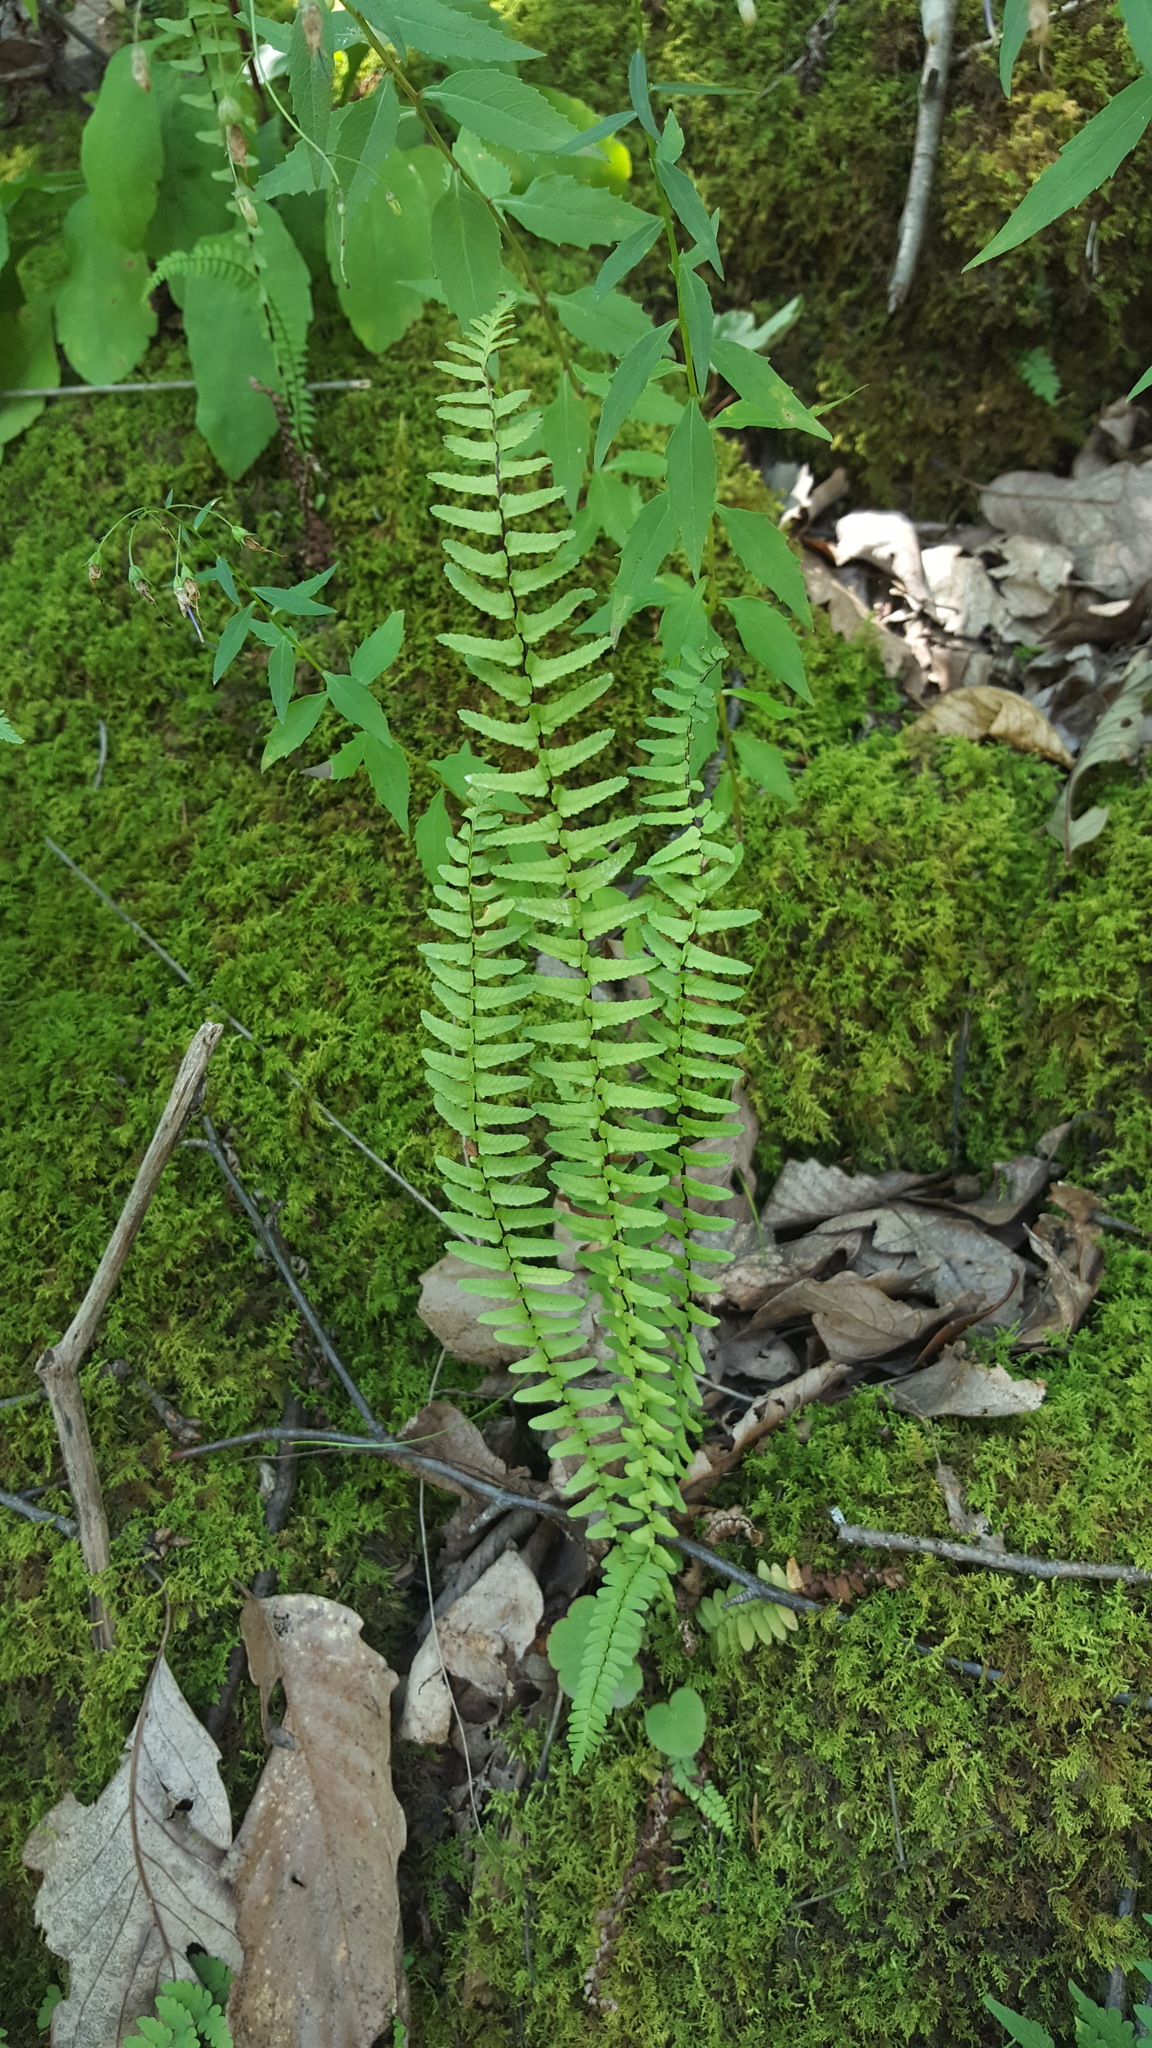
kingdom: Plantae
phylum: Tracheophyta
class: Polypodiopsida
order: Polypodiales
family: Aspleniaceae
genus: Asplenium
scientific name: Asplenium platyneuron
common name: Ebony spleenwort
